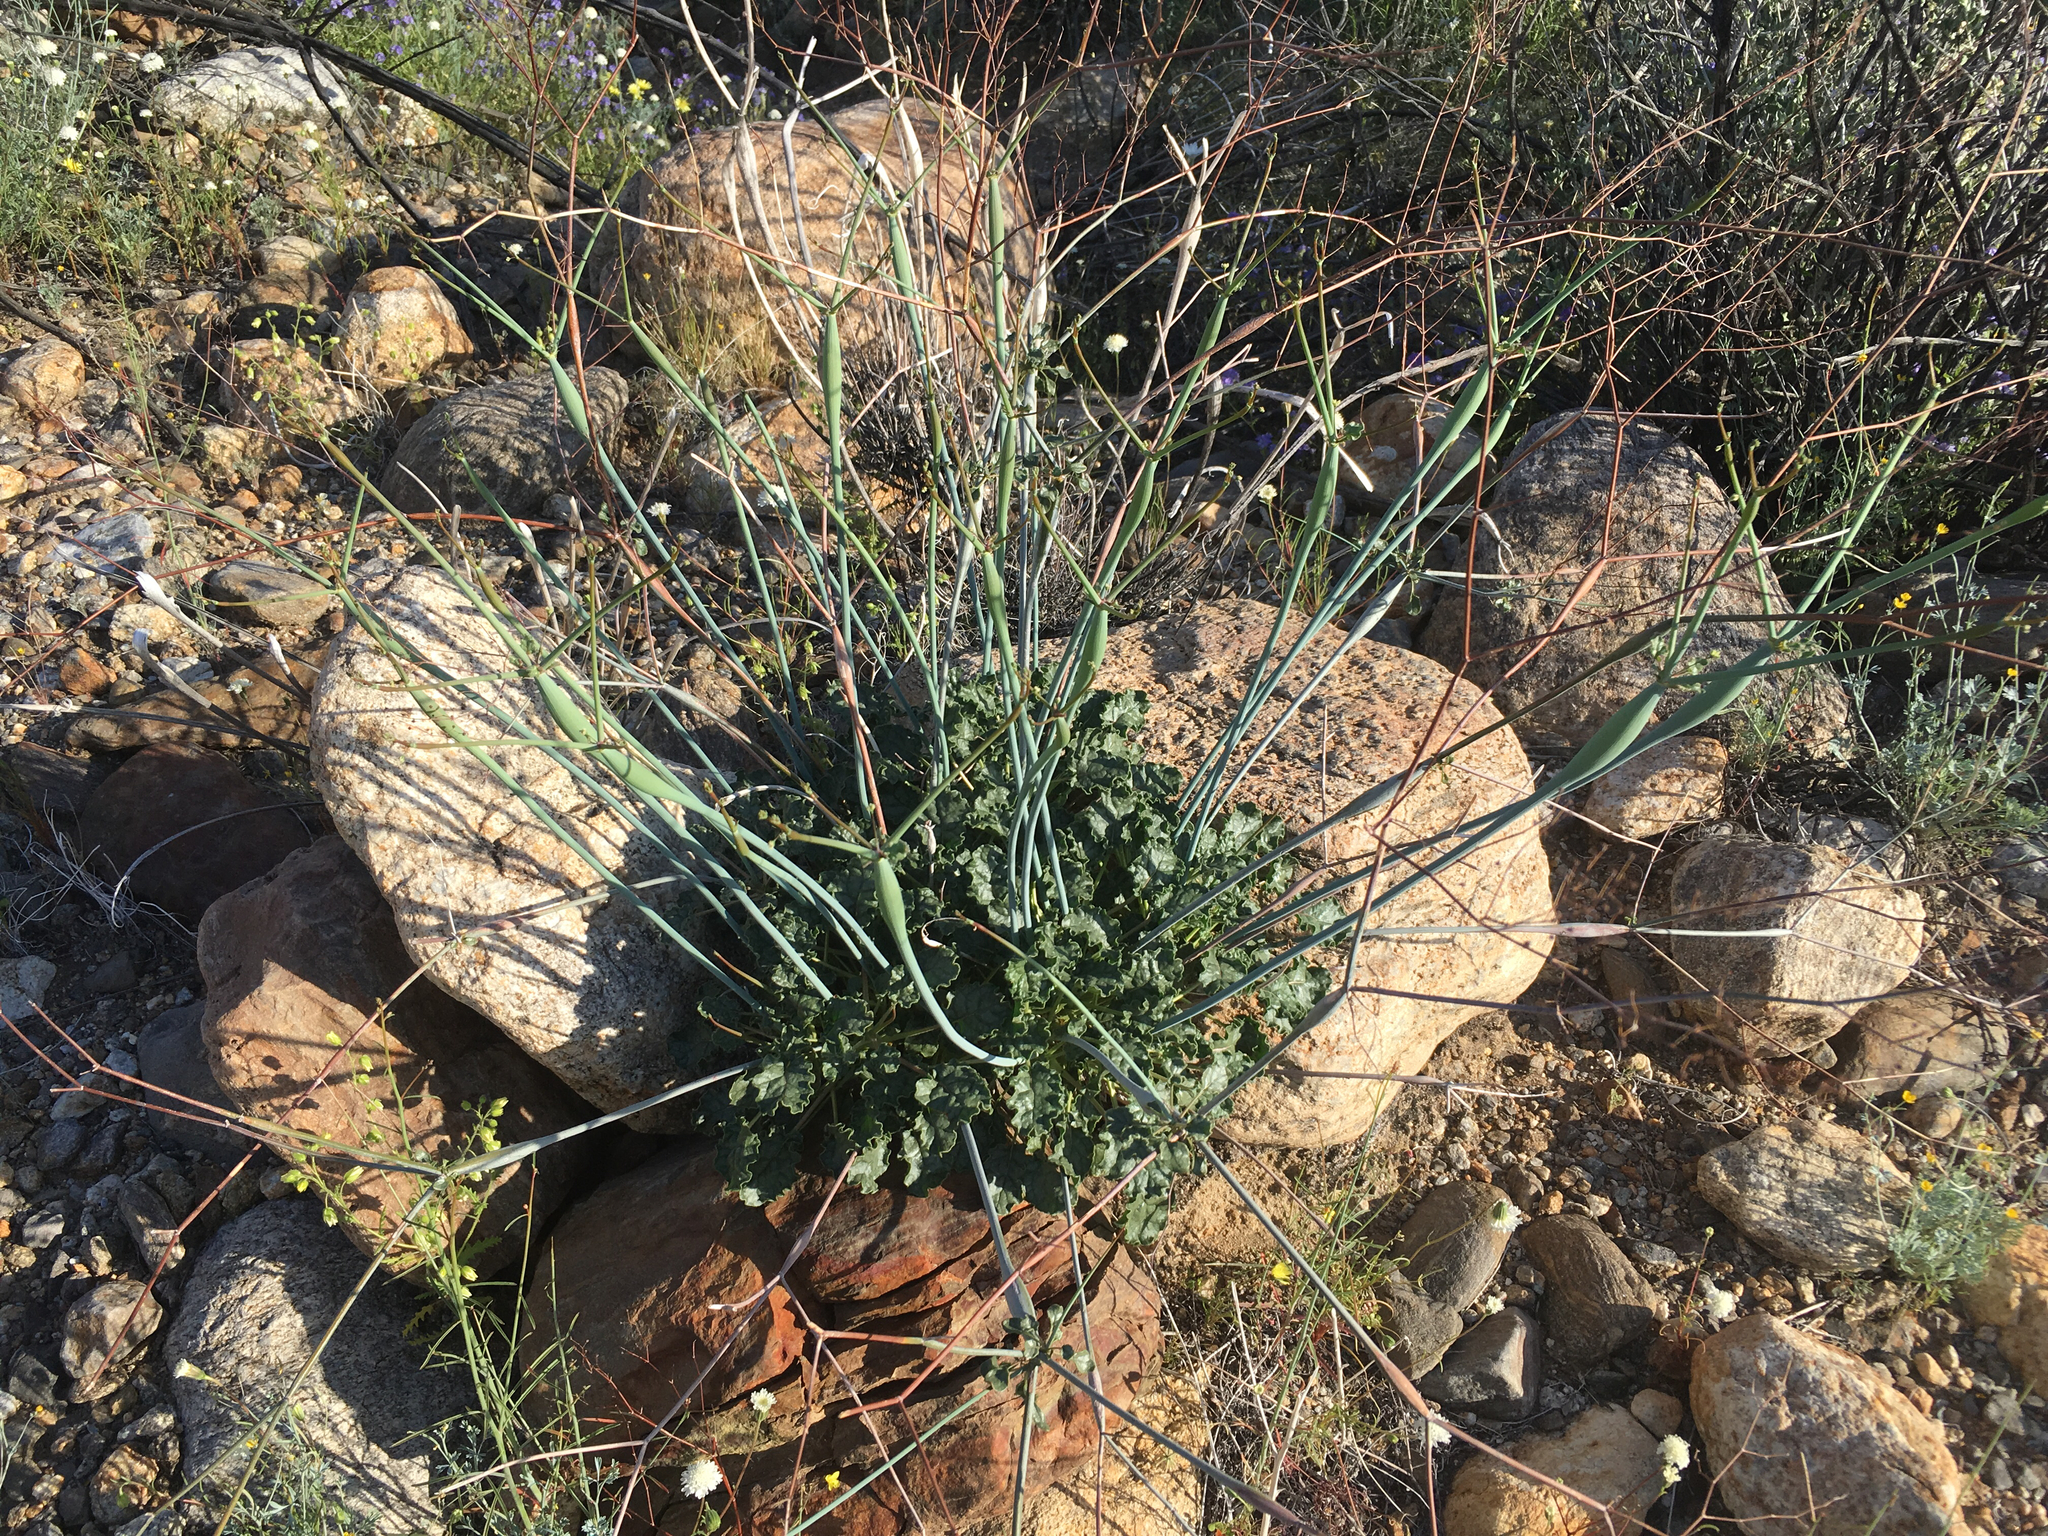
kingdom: Plantae
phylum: Tracheophyta
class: Magnoliopsida
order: Caryophyllales
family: Polygonaceae
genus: Eriogonum
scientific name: Eriogonum inflatum
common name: Desert trumpet
